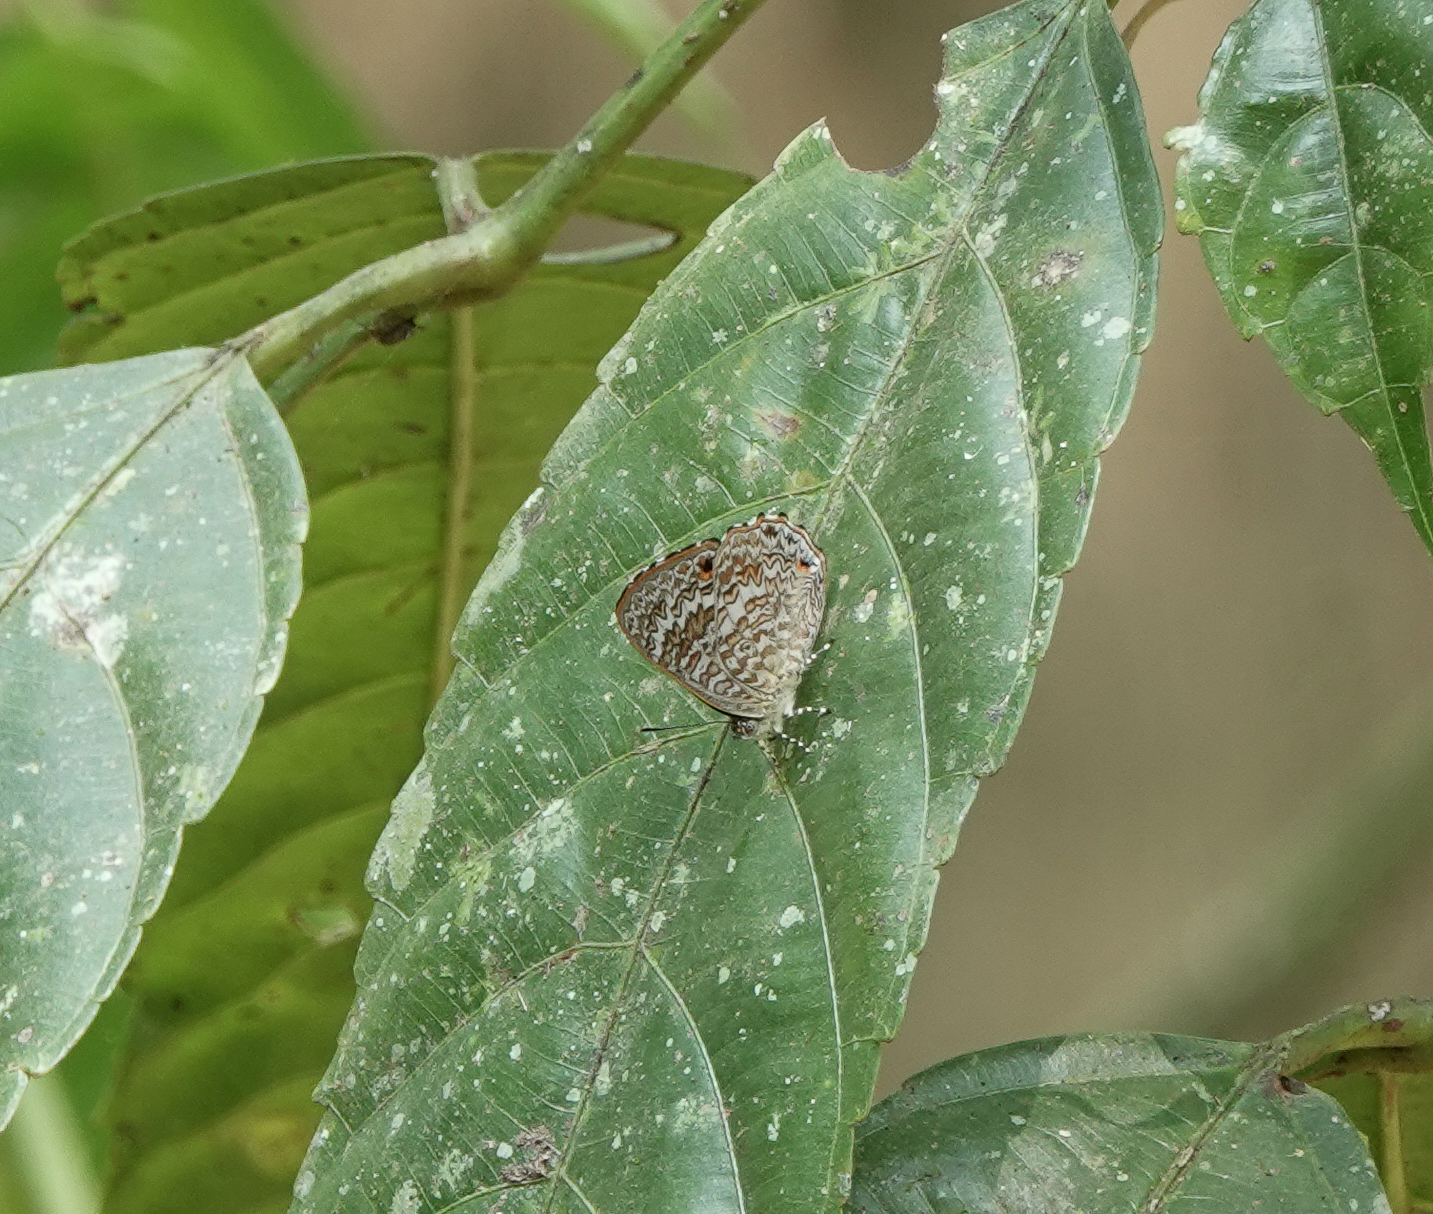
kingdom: Animalia
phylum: Arthropoda
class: Insecta
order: Lepidoptera
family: Lycaenidae
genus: Poritia
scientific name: Poritia hewitsoni
